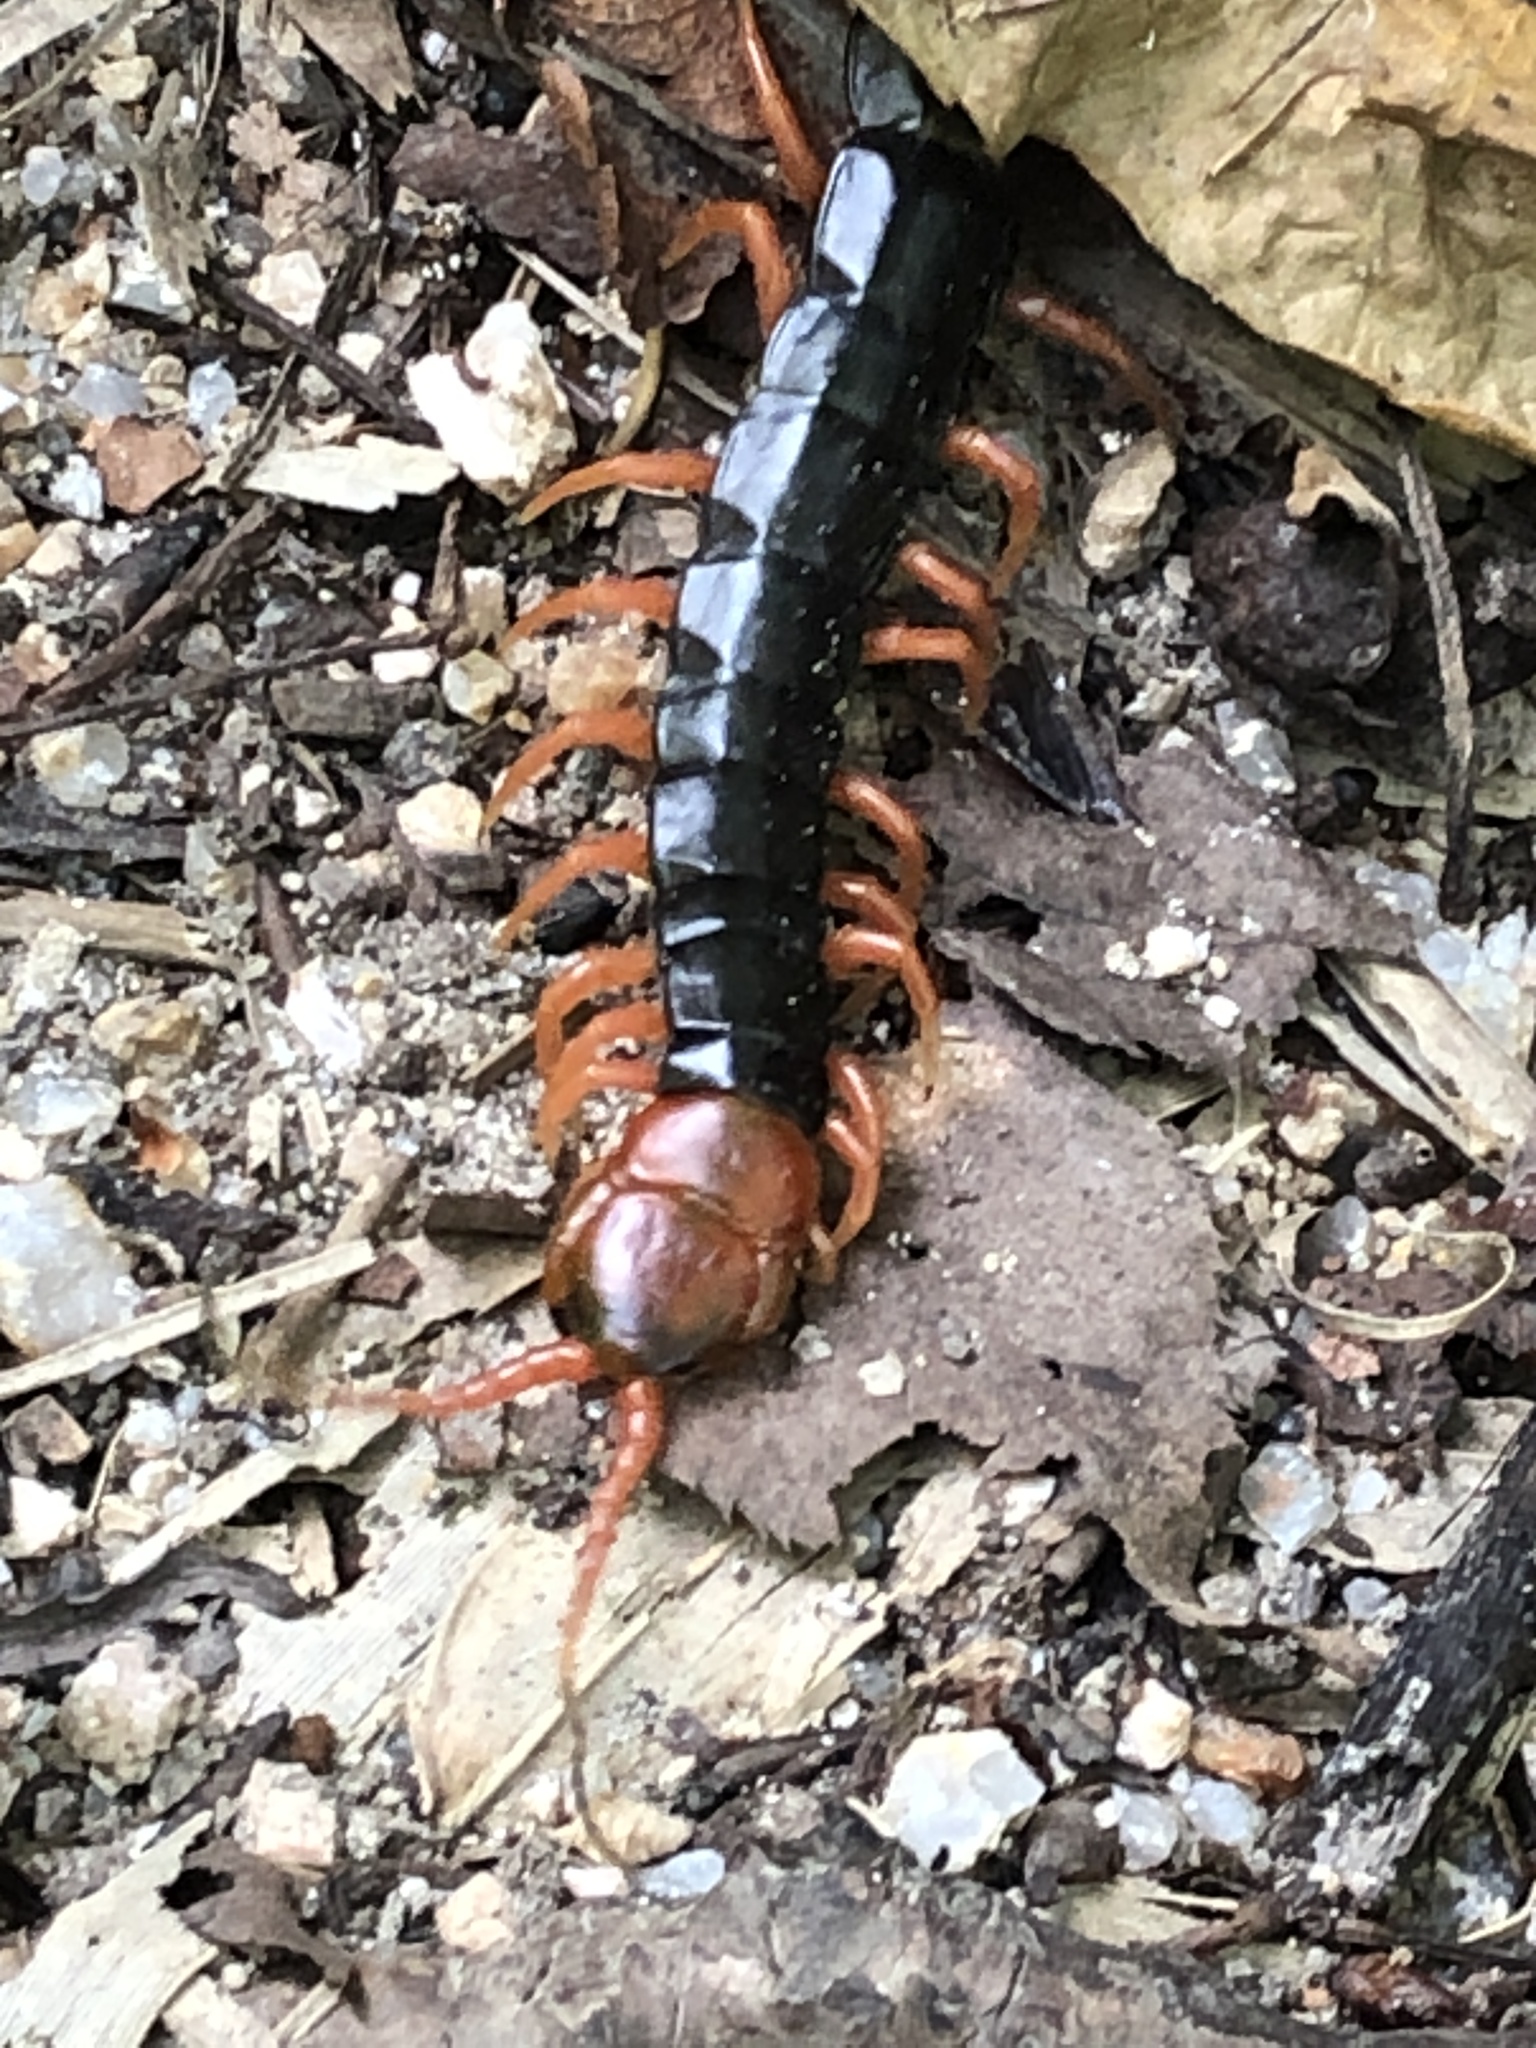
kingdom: Animalia
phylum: Arthropoda
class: Chilopoda
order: Scolopendromorpha
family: Scolopendridae
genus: Scolopendra
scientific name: Scolopendra mutilans
